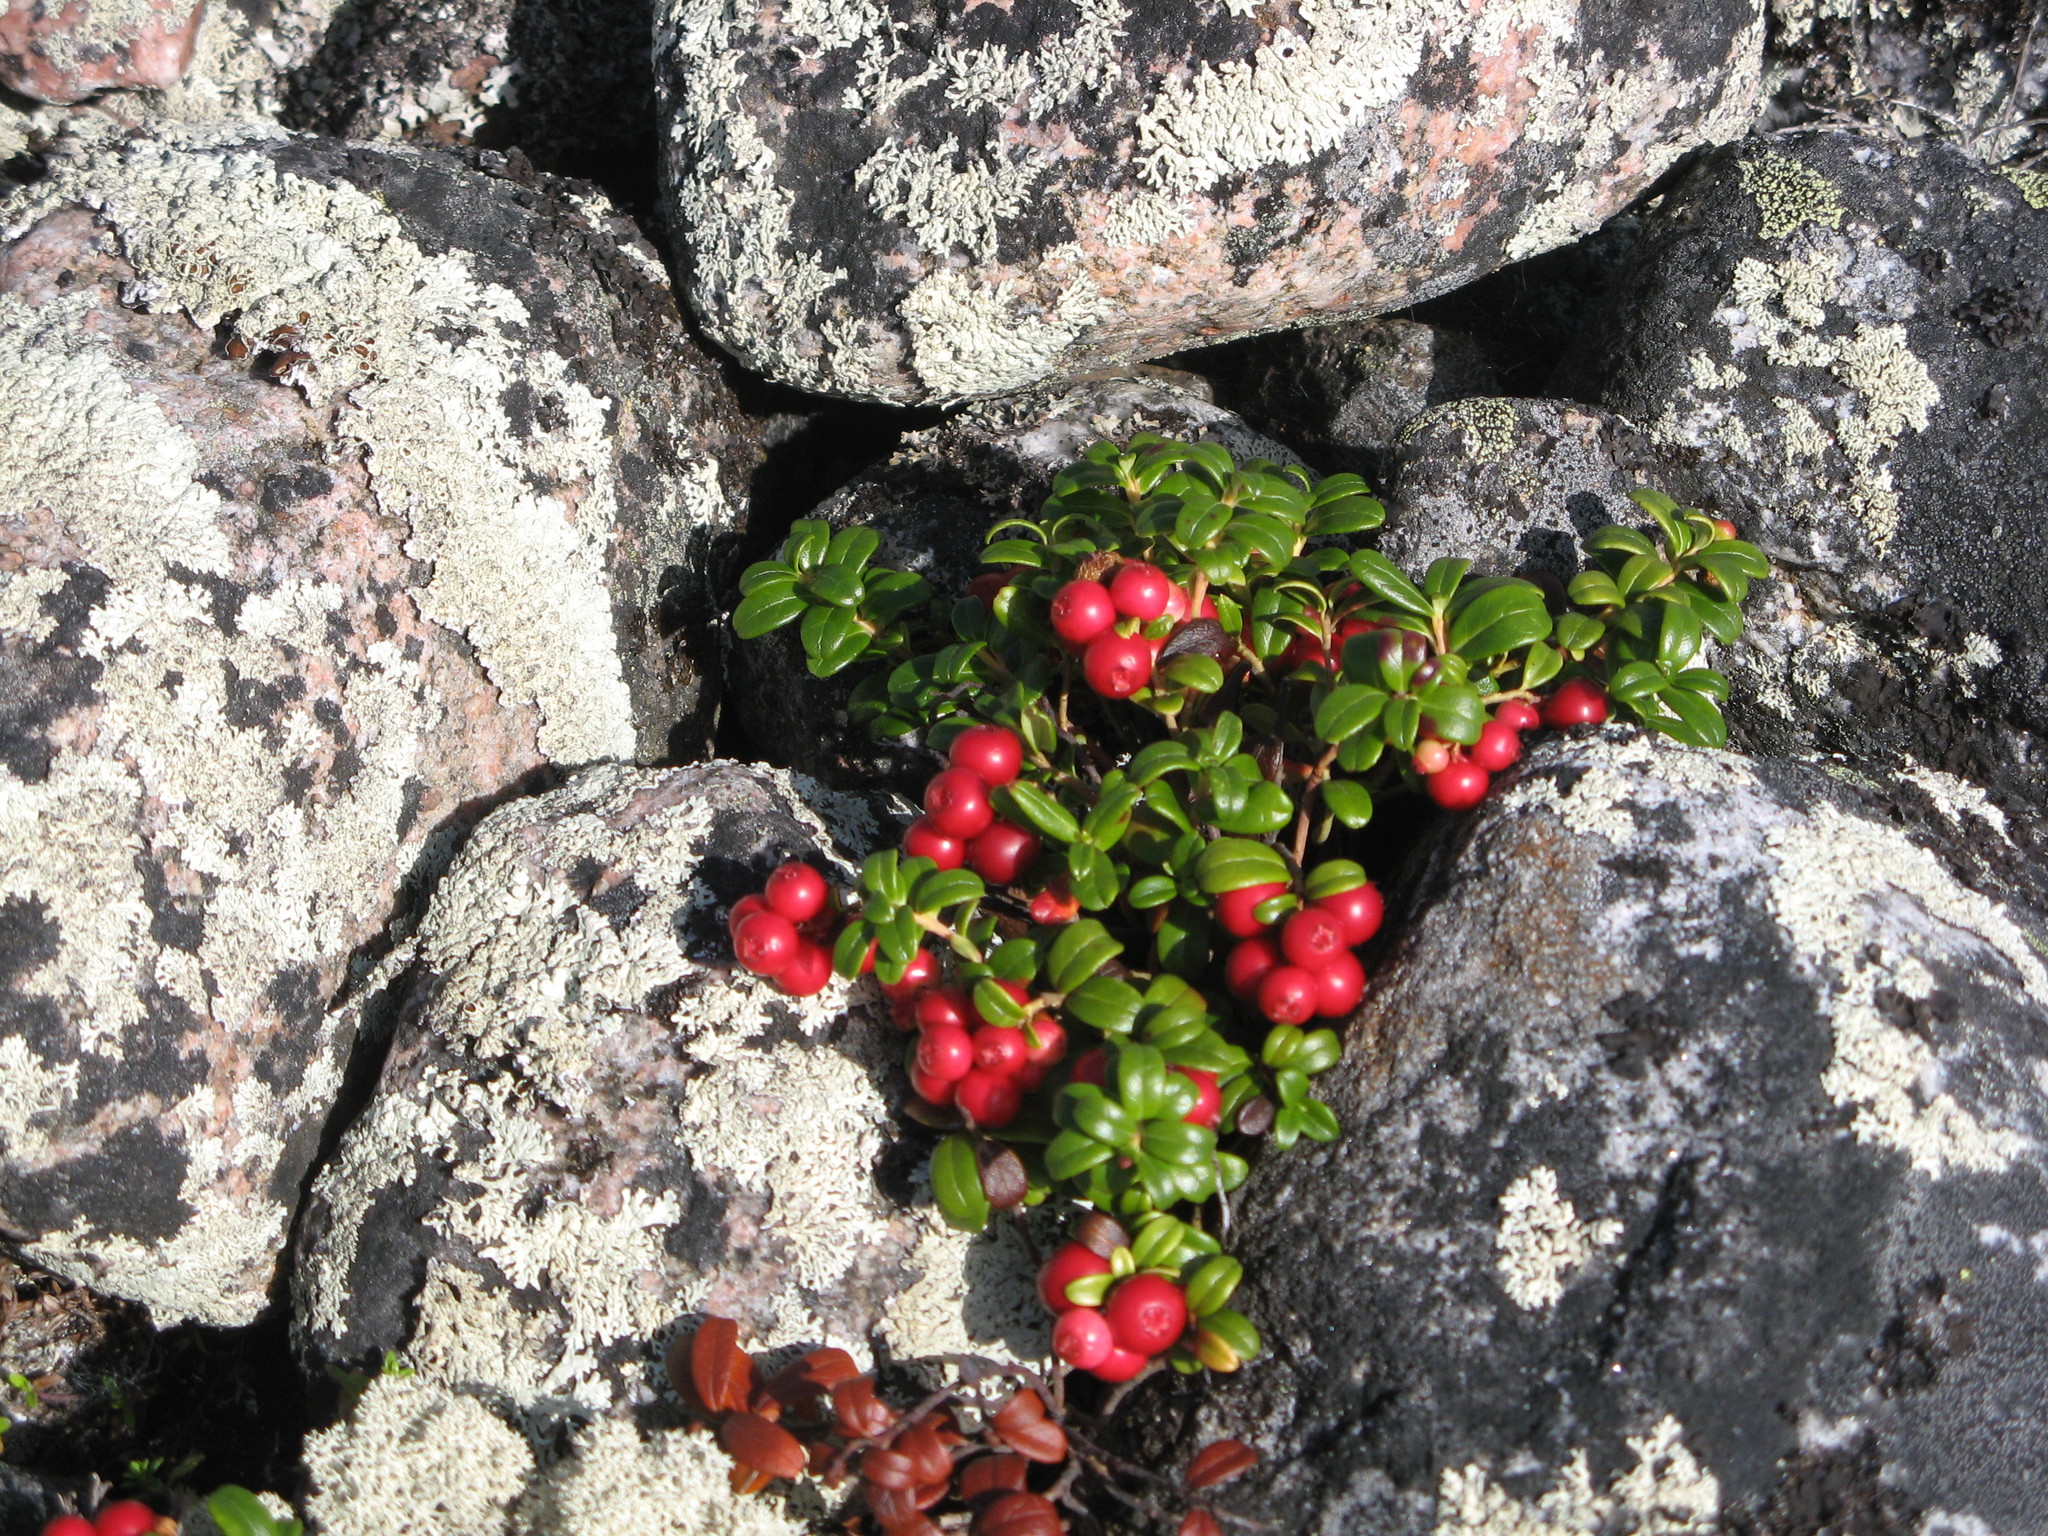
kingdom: Plantae
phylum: Tracheophyta
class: Magnoliopsida
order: Ericales
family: Ericaceae
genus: Vaccinium
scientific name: Vaccinium vitis-idaea
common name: Cowberry
